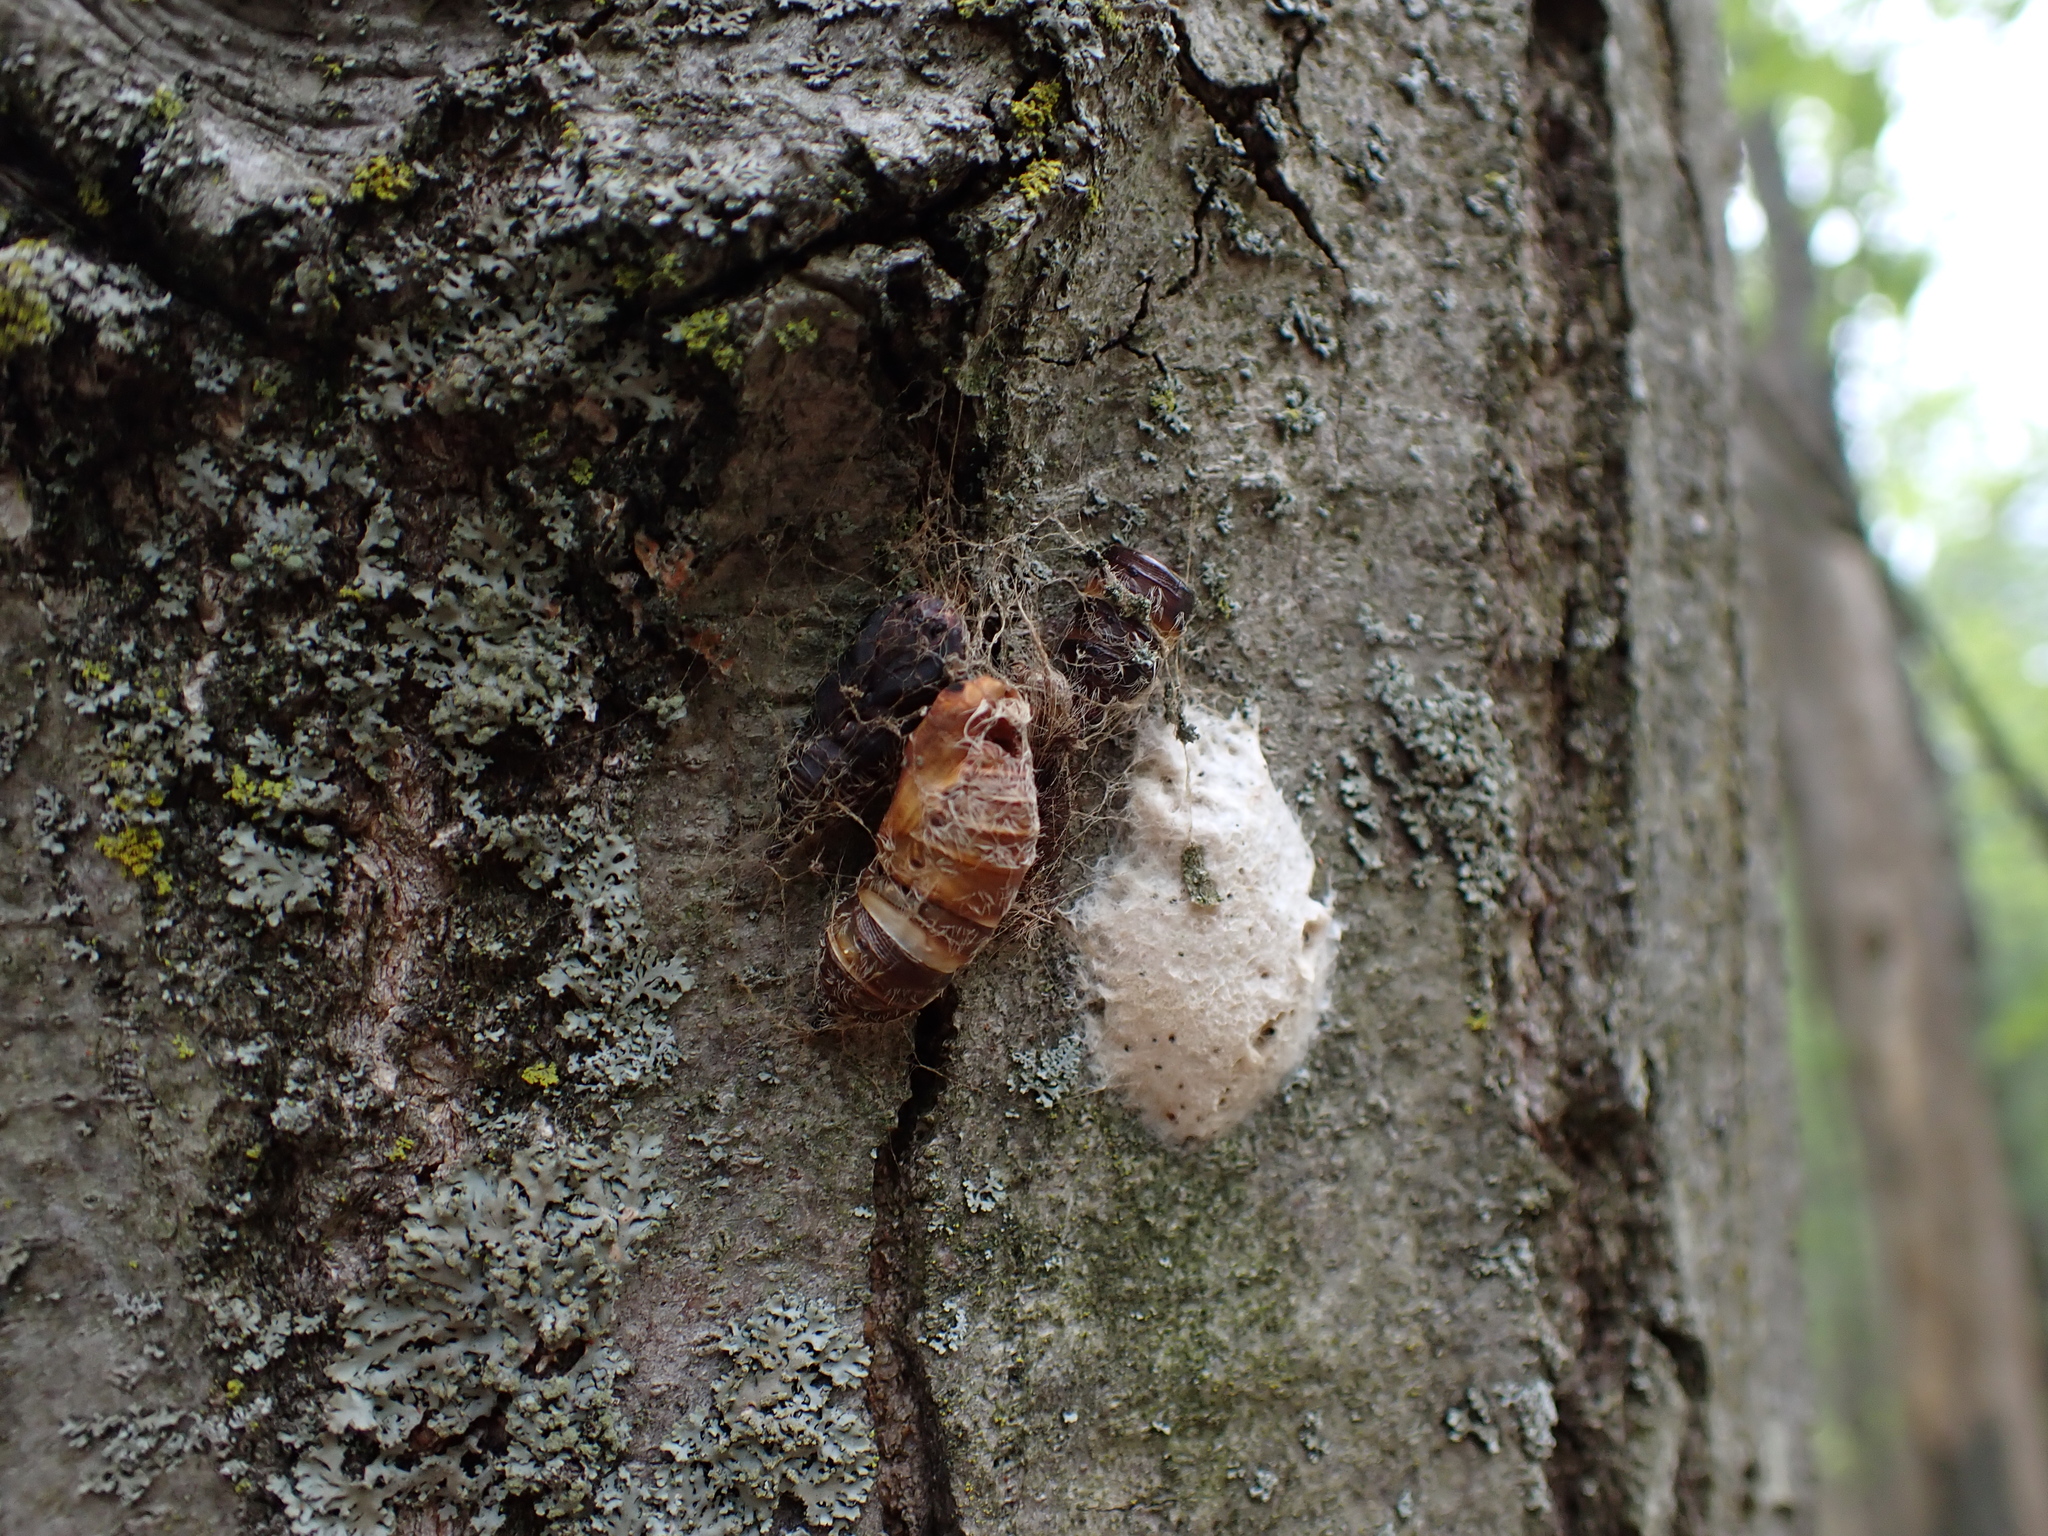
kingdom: Animalia
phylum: Arthropoda
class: Insecta
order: Lepidoptera
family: Erebidae
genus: Lymantria
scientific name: Lymantria dispar
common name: Gypsy moth
